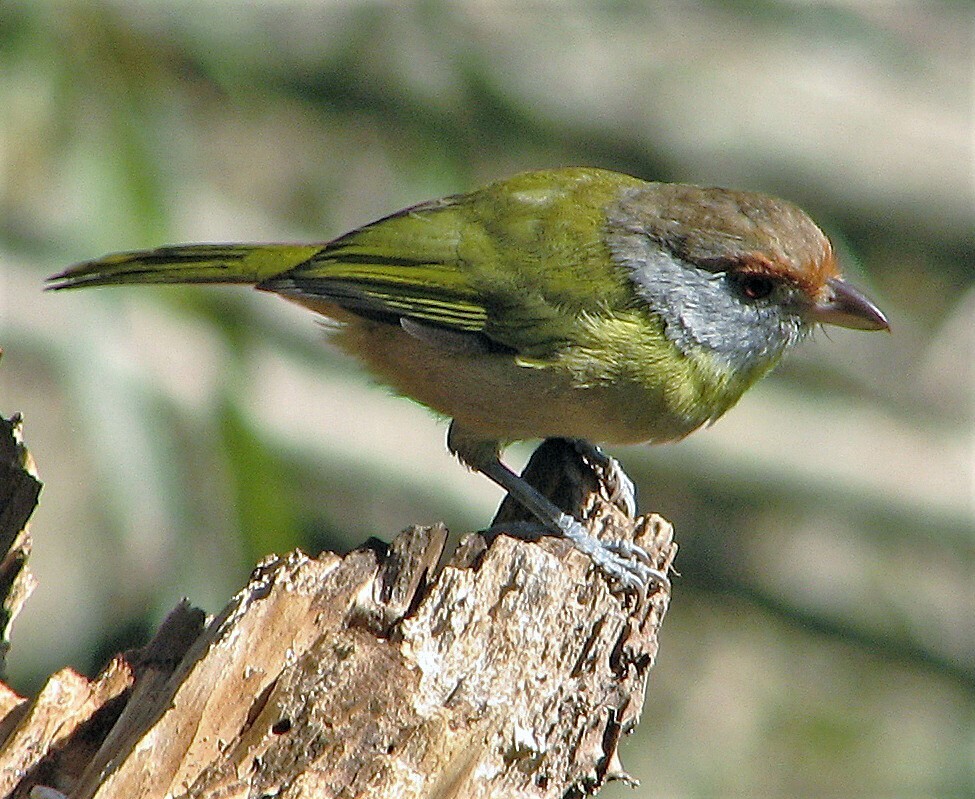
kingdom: Animalia
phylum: Chordata
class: Aves
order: Passeriformes
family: Vireonidae
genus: Cyclarhis
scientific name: Cyclarhis gujanensis
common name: Rufous-browed peppershrike
